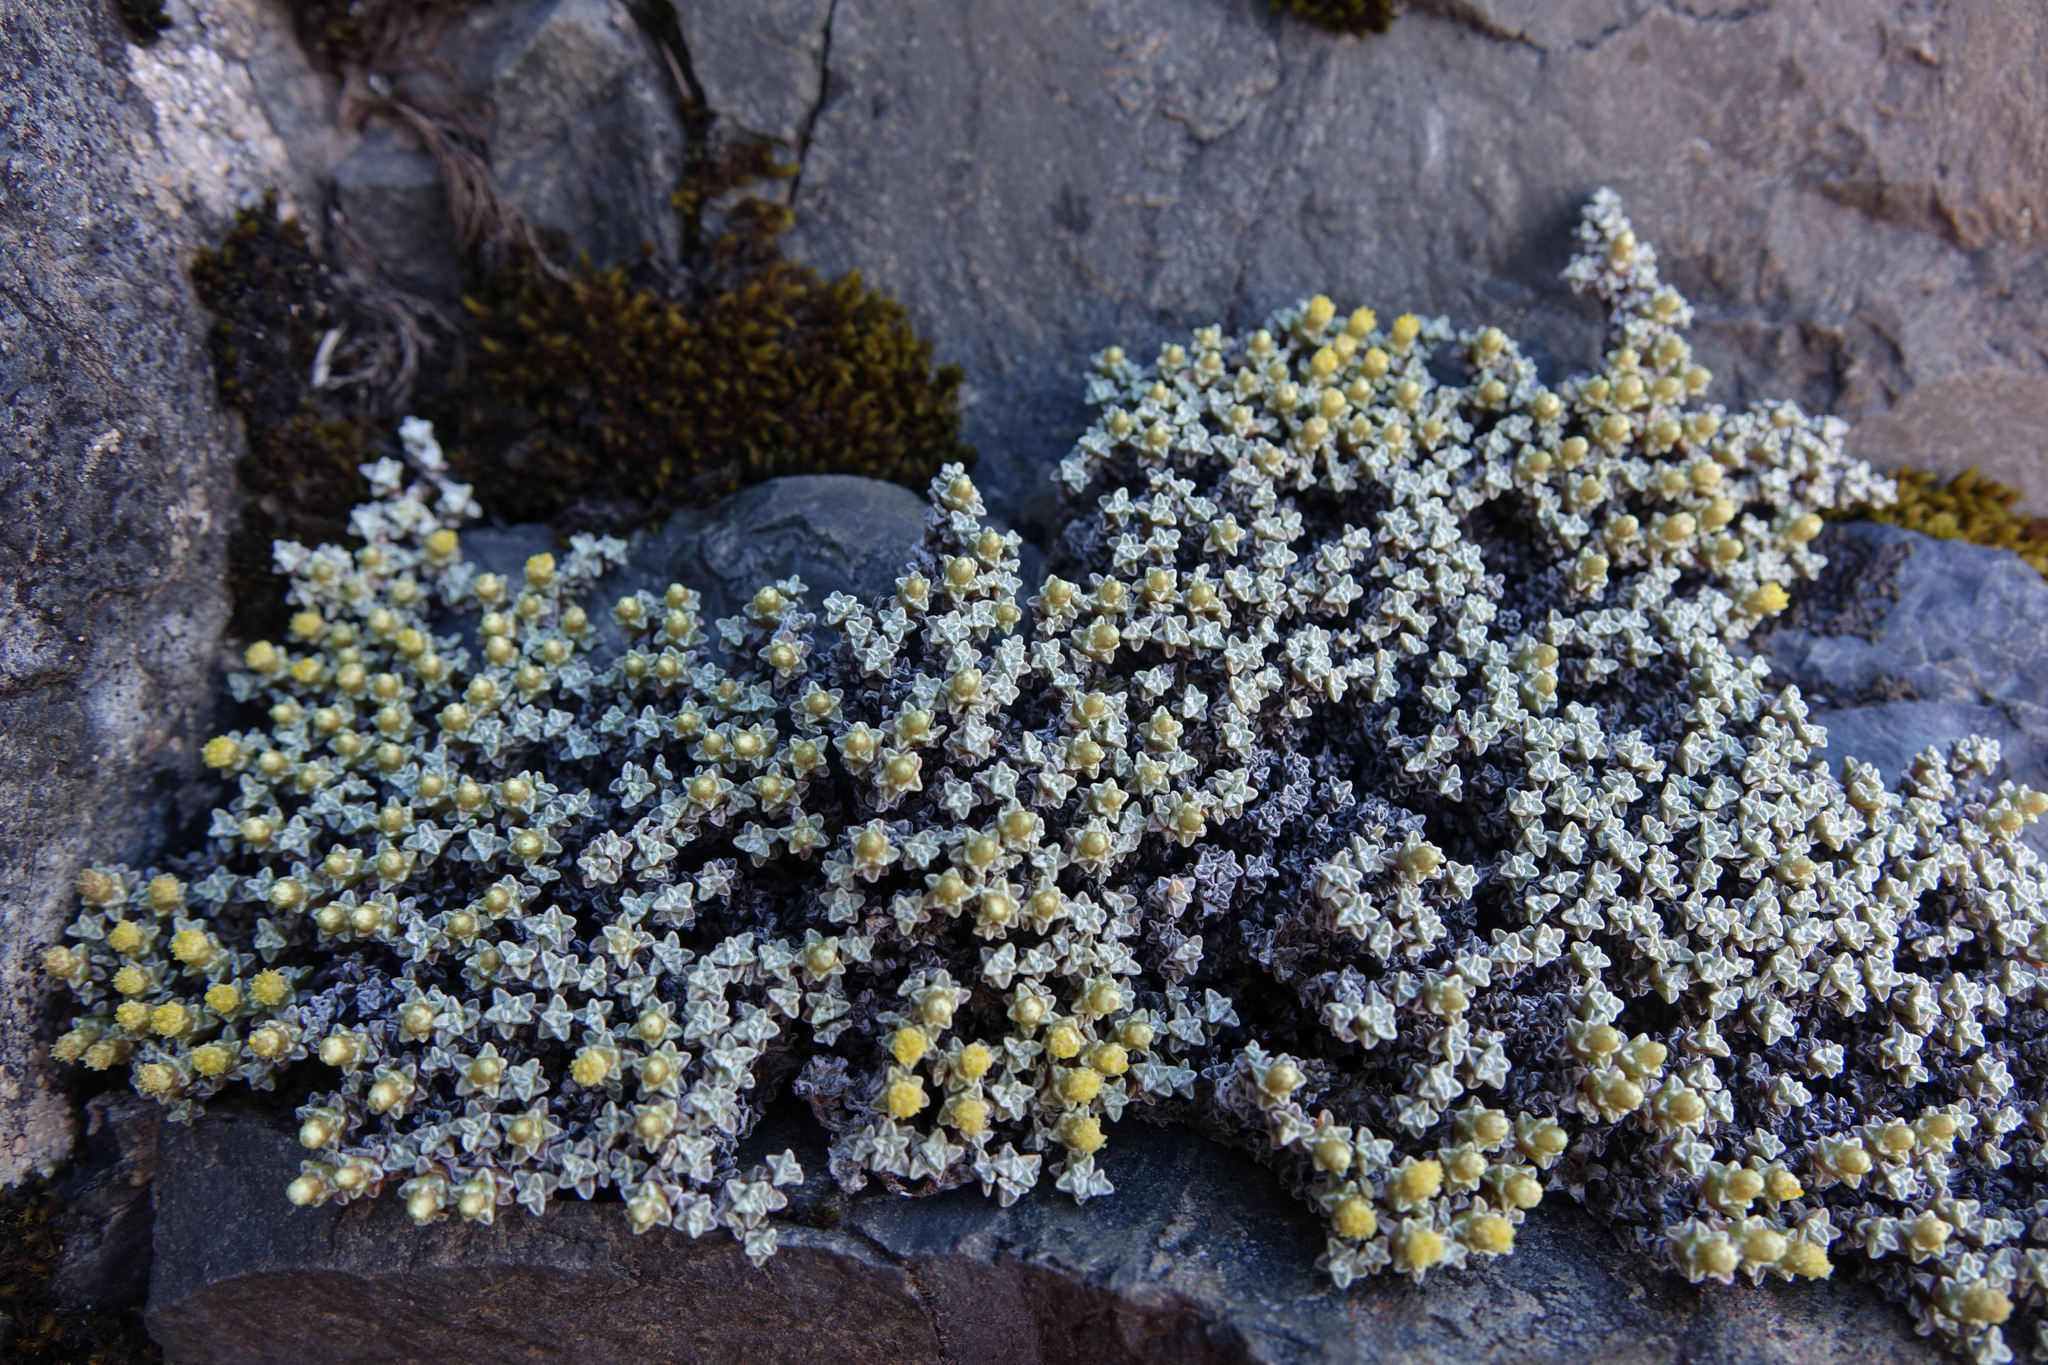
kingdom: Plantae
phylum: Tracheophyta
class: Magnoliopsida
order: Asterales
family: Asteraceae
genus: Raoulia
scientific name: Raoulia australis
